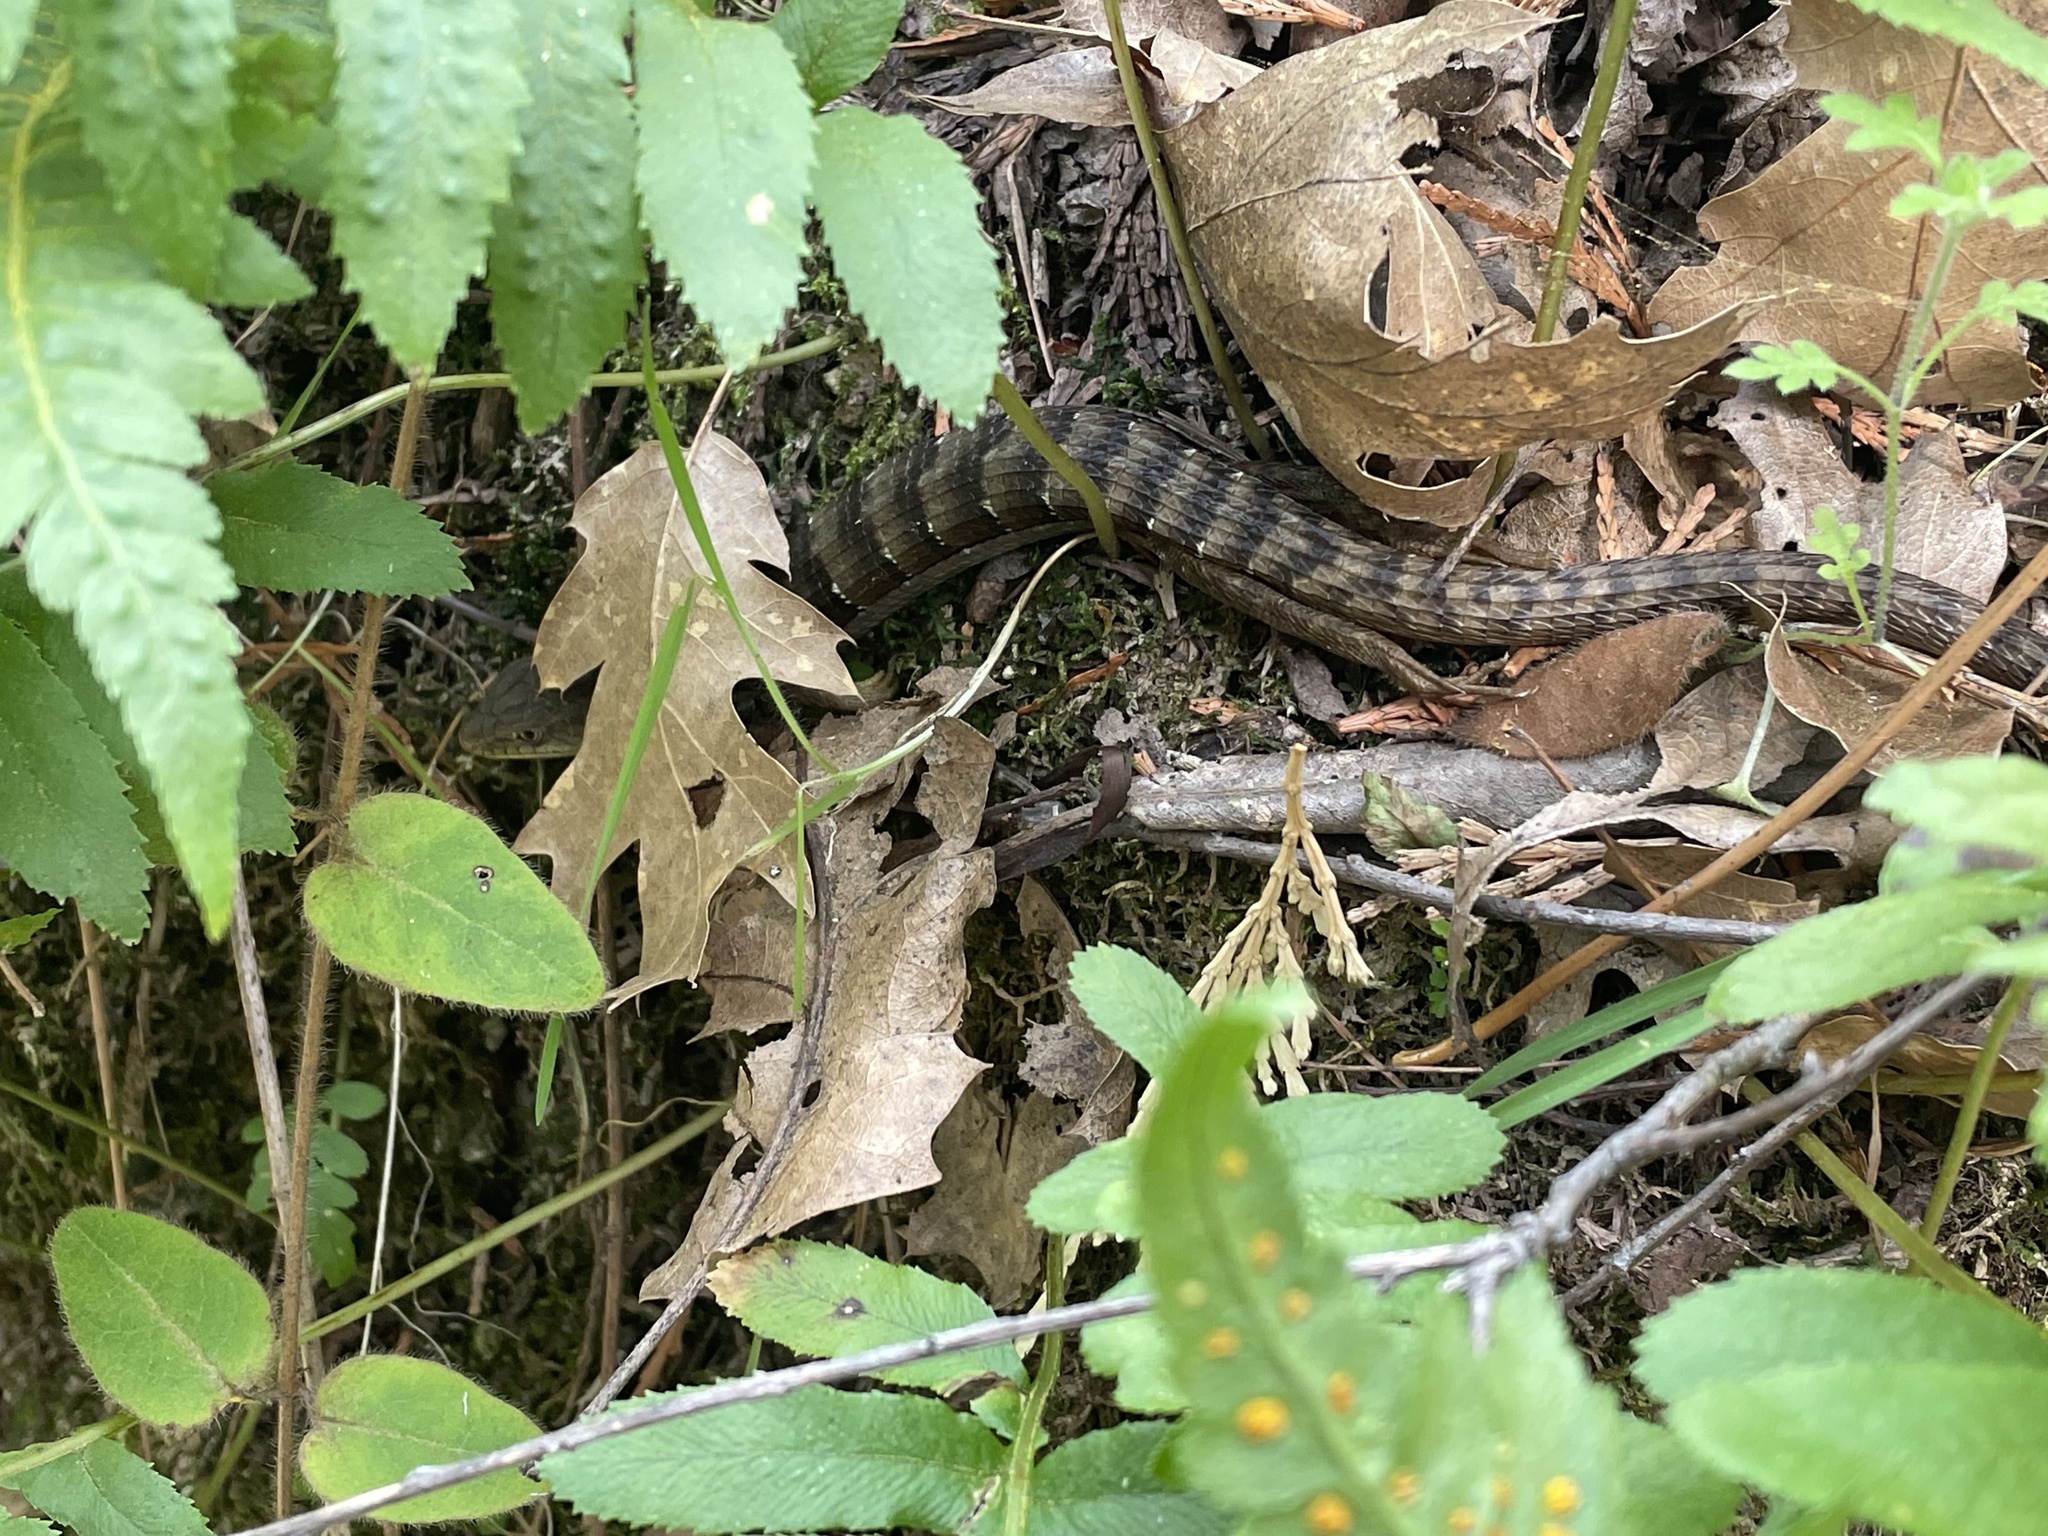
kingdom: Animalia
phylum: Chordata
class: Squamata
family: Anguidae
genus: Elgaria
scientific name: Elgaria multicarinata
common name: Southern alligator lizard
